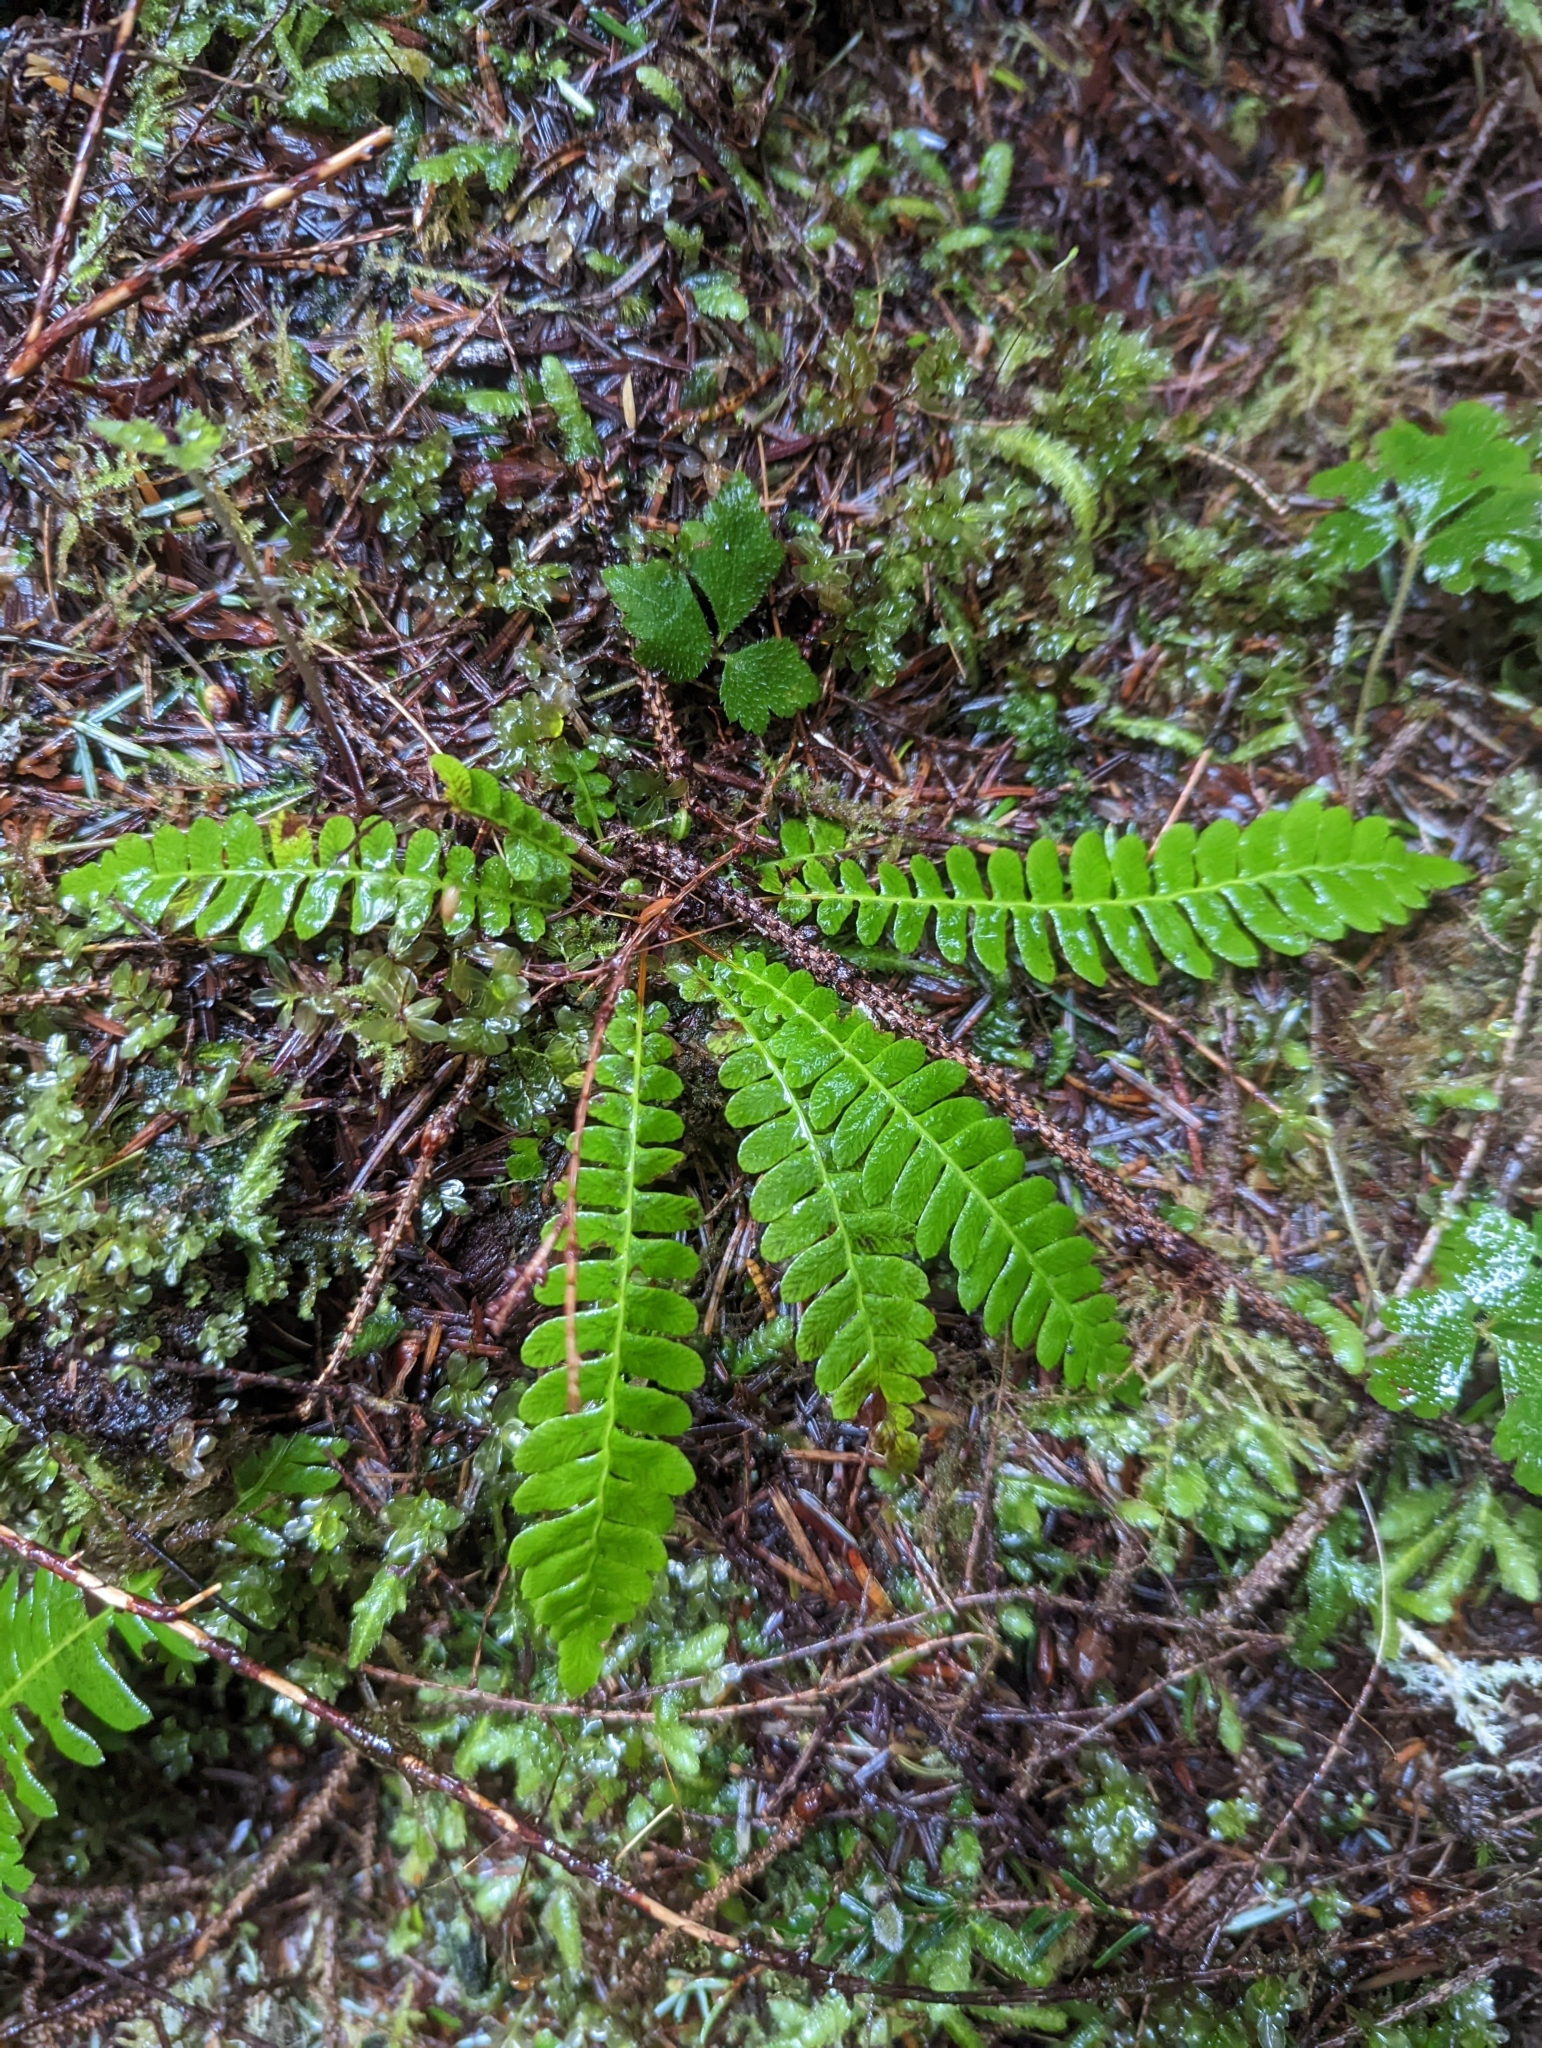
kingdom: Plantae
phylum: Tracheophyta
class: Polypodiopsida
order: Polypodiales
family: Blechnaceae
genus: Struthiopteris
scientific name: Struthiopteris spicant
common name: Deer fern
